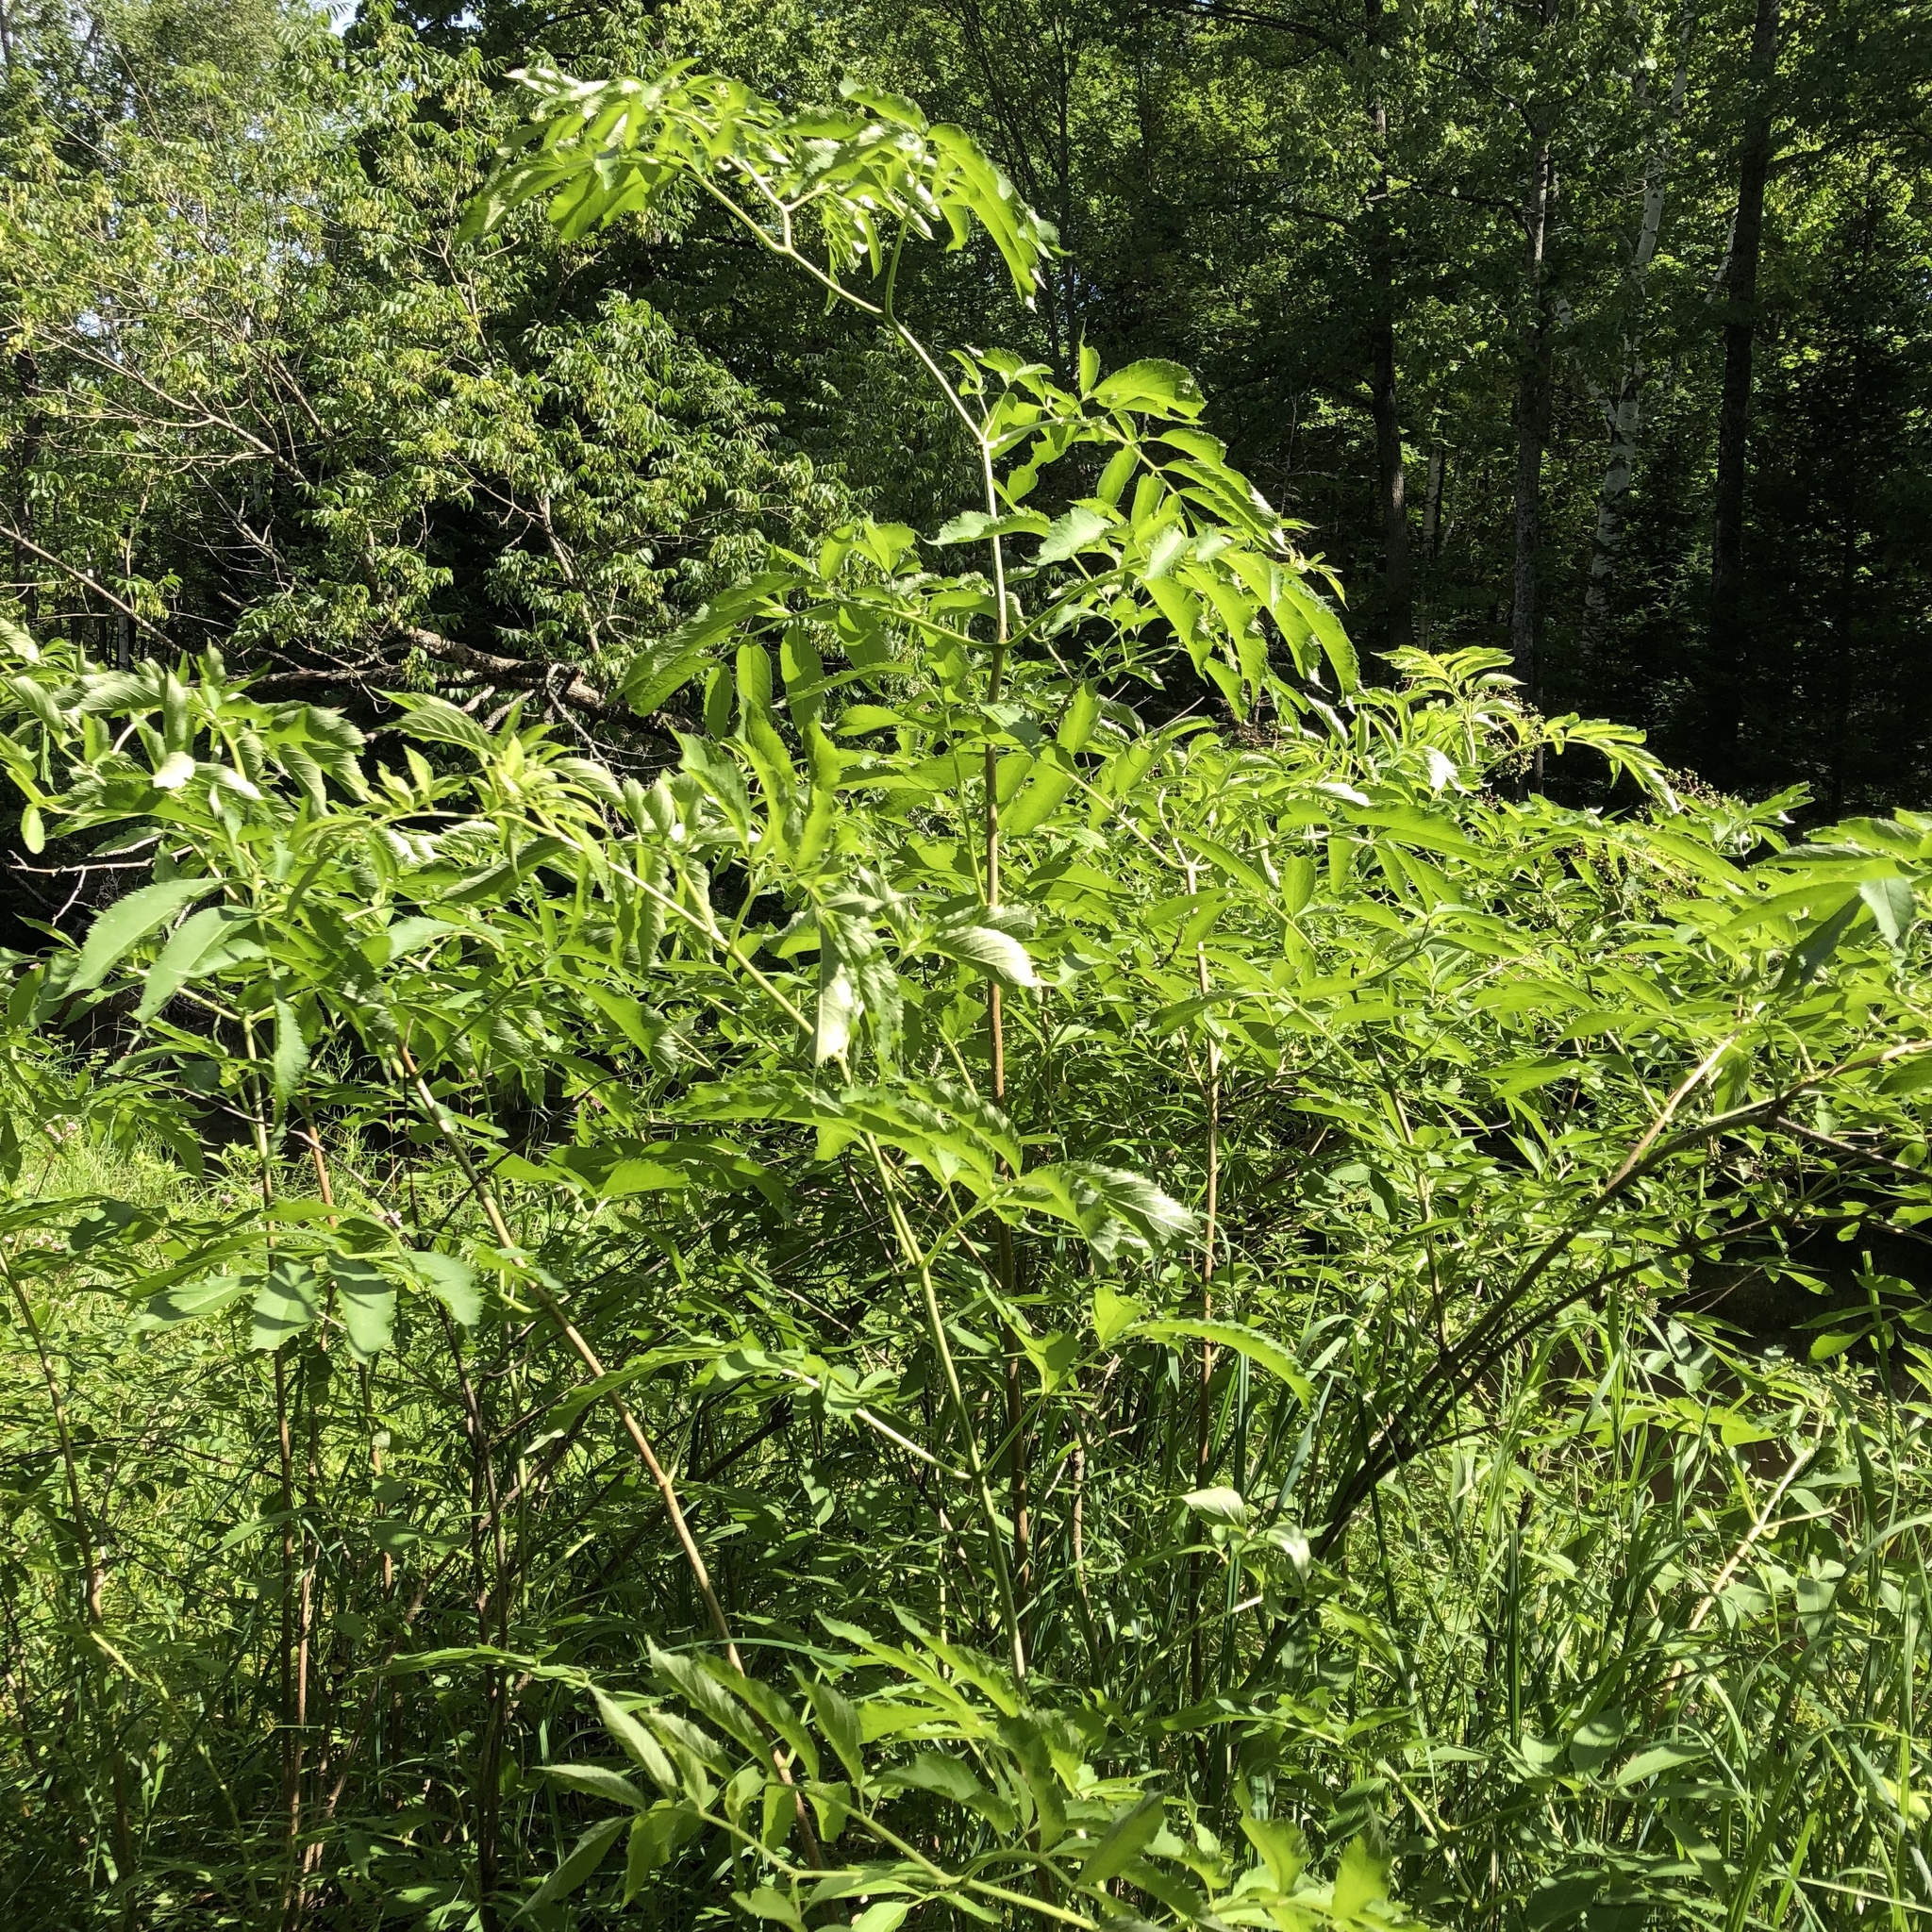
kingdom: Plantae
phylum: Tracheophyta
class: Magnoliopsida
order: Dipsacales
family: Viburnaceae
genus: Sambucus
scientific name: Sambucus
